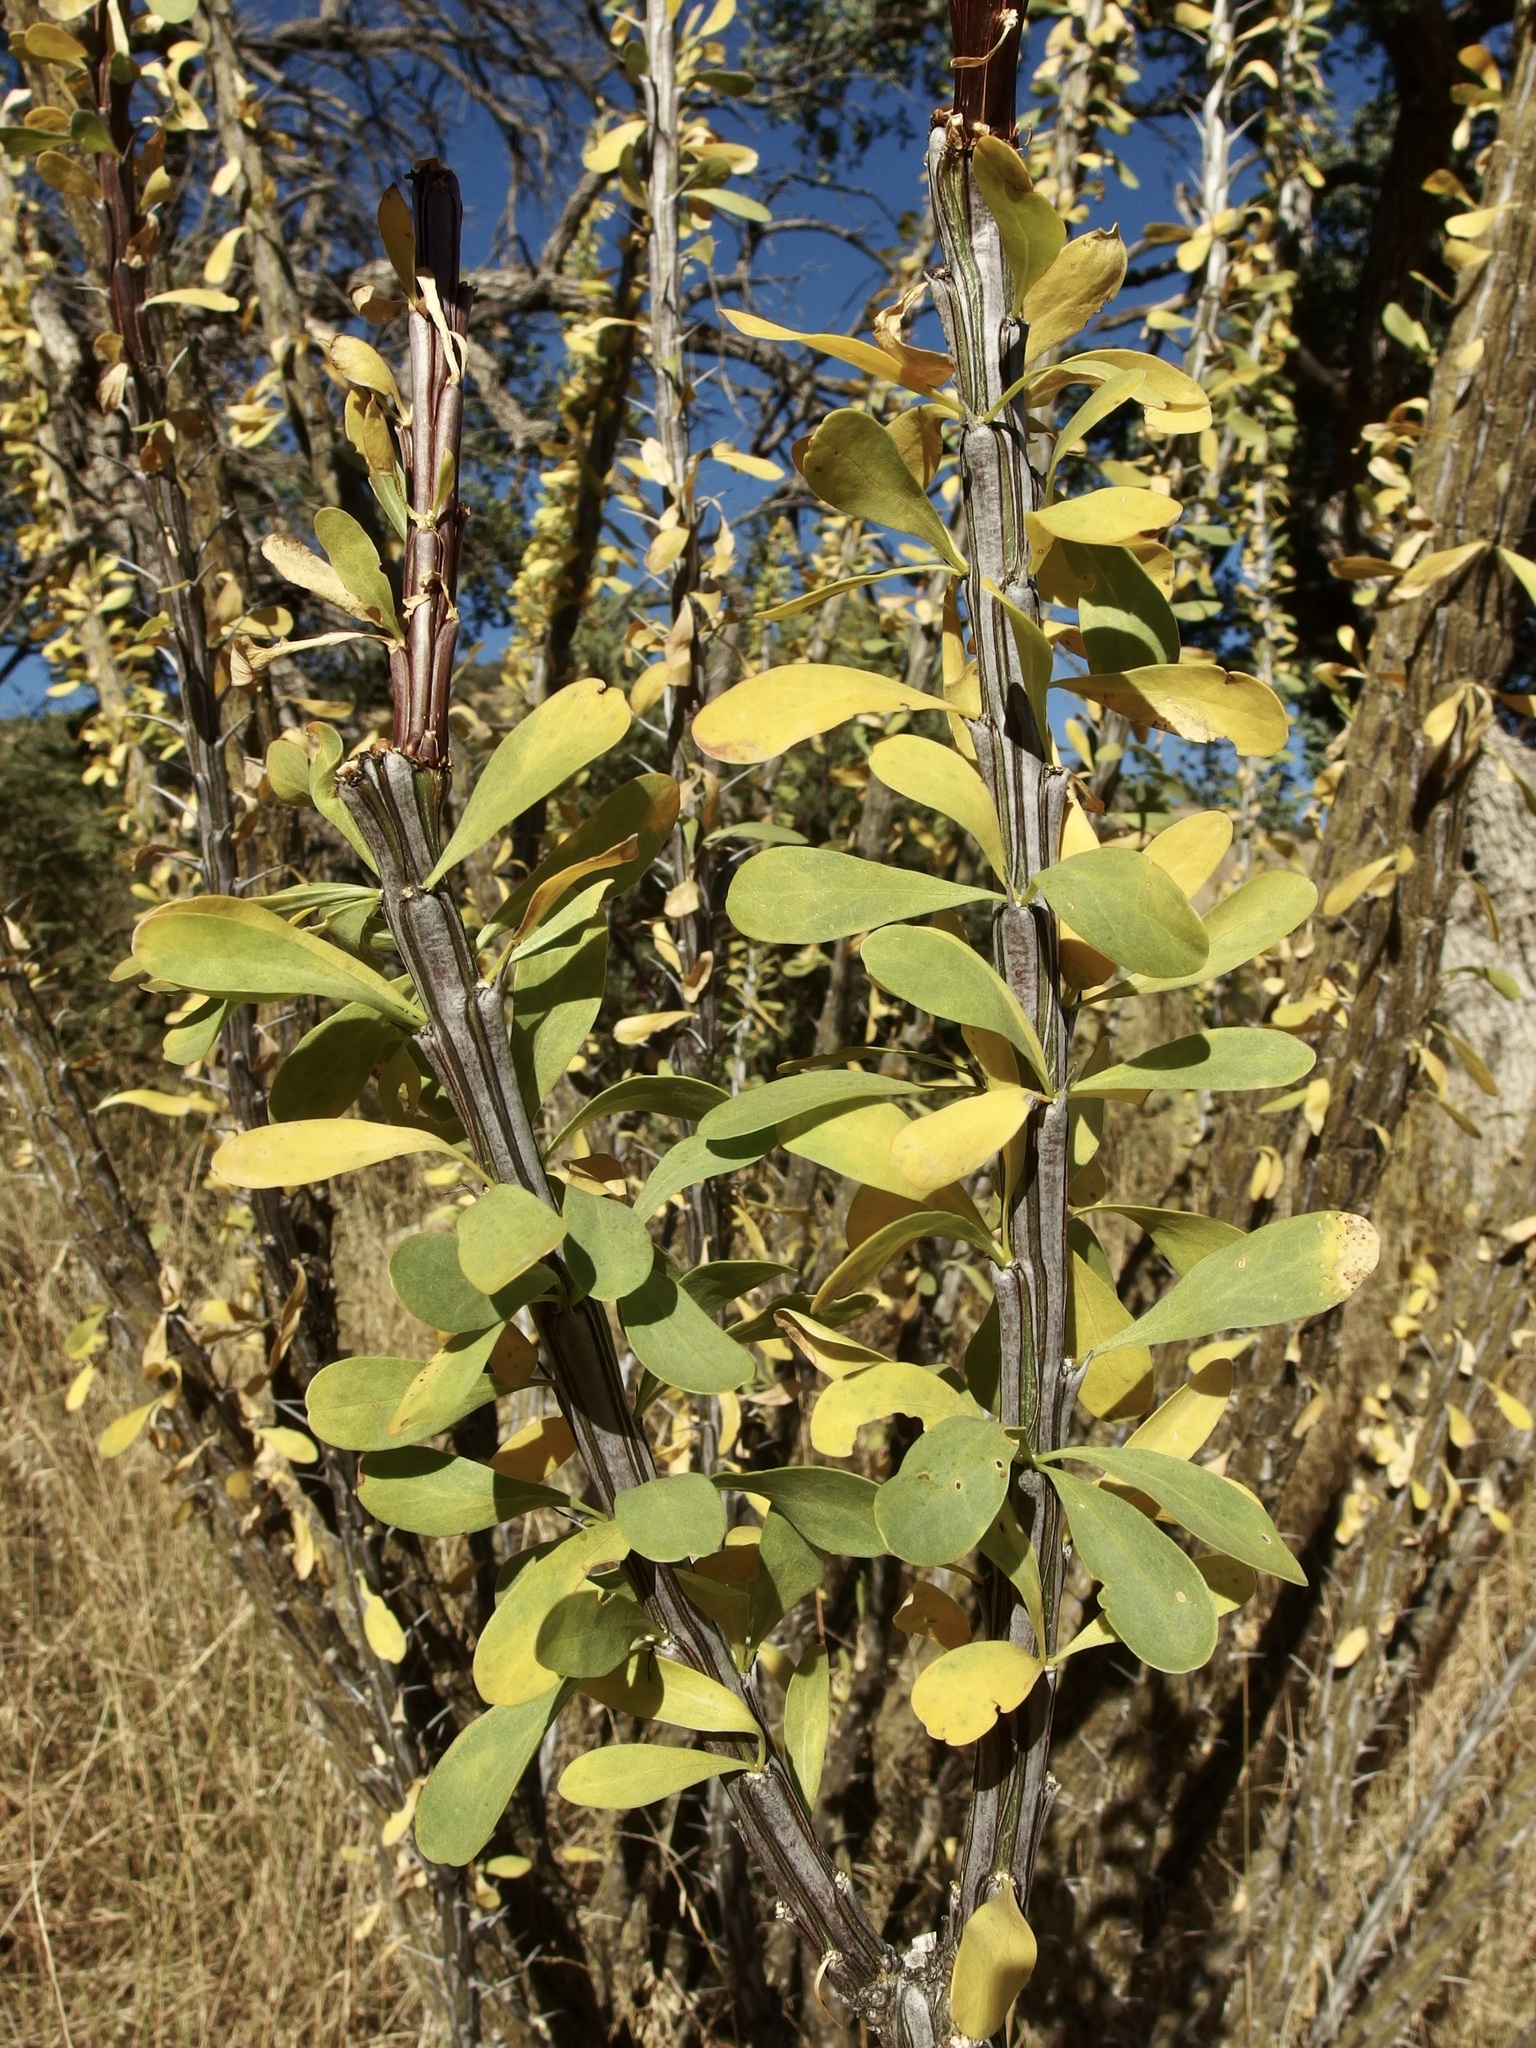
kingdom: Plantae
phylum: Tracheophyta
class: Magnoliopsida
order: Ericales
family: Fouquieriaceae
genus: Fouquieria
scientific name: Fouquieria splendens
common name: Vine-cactus
